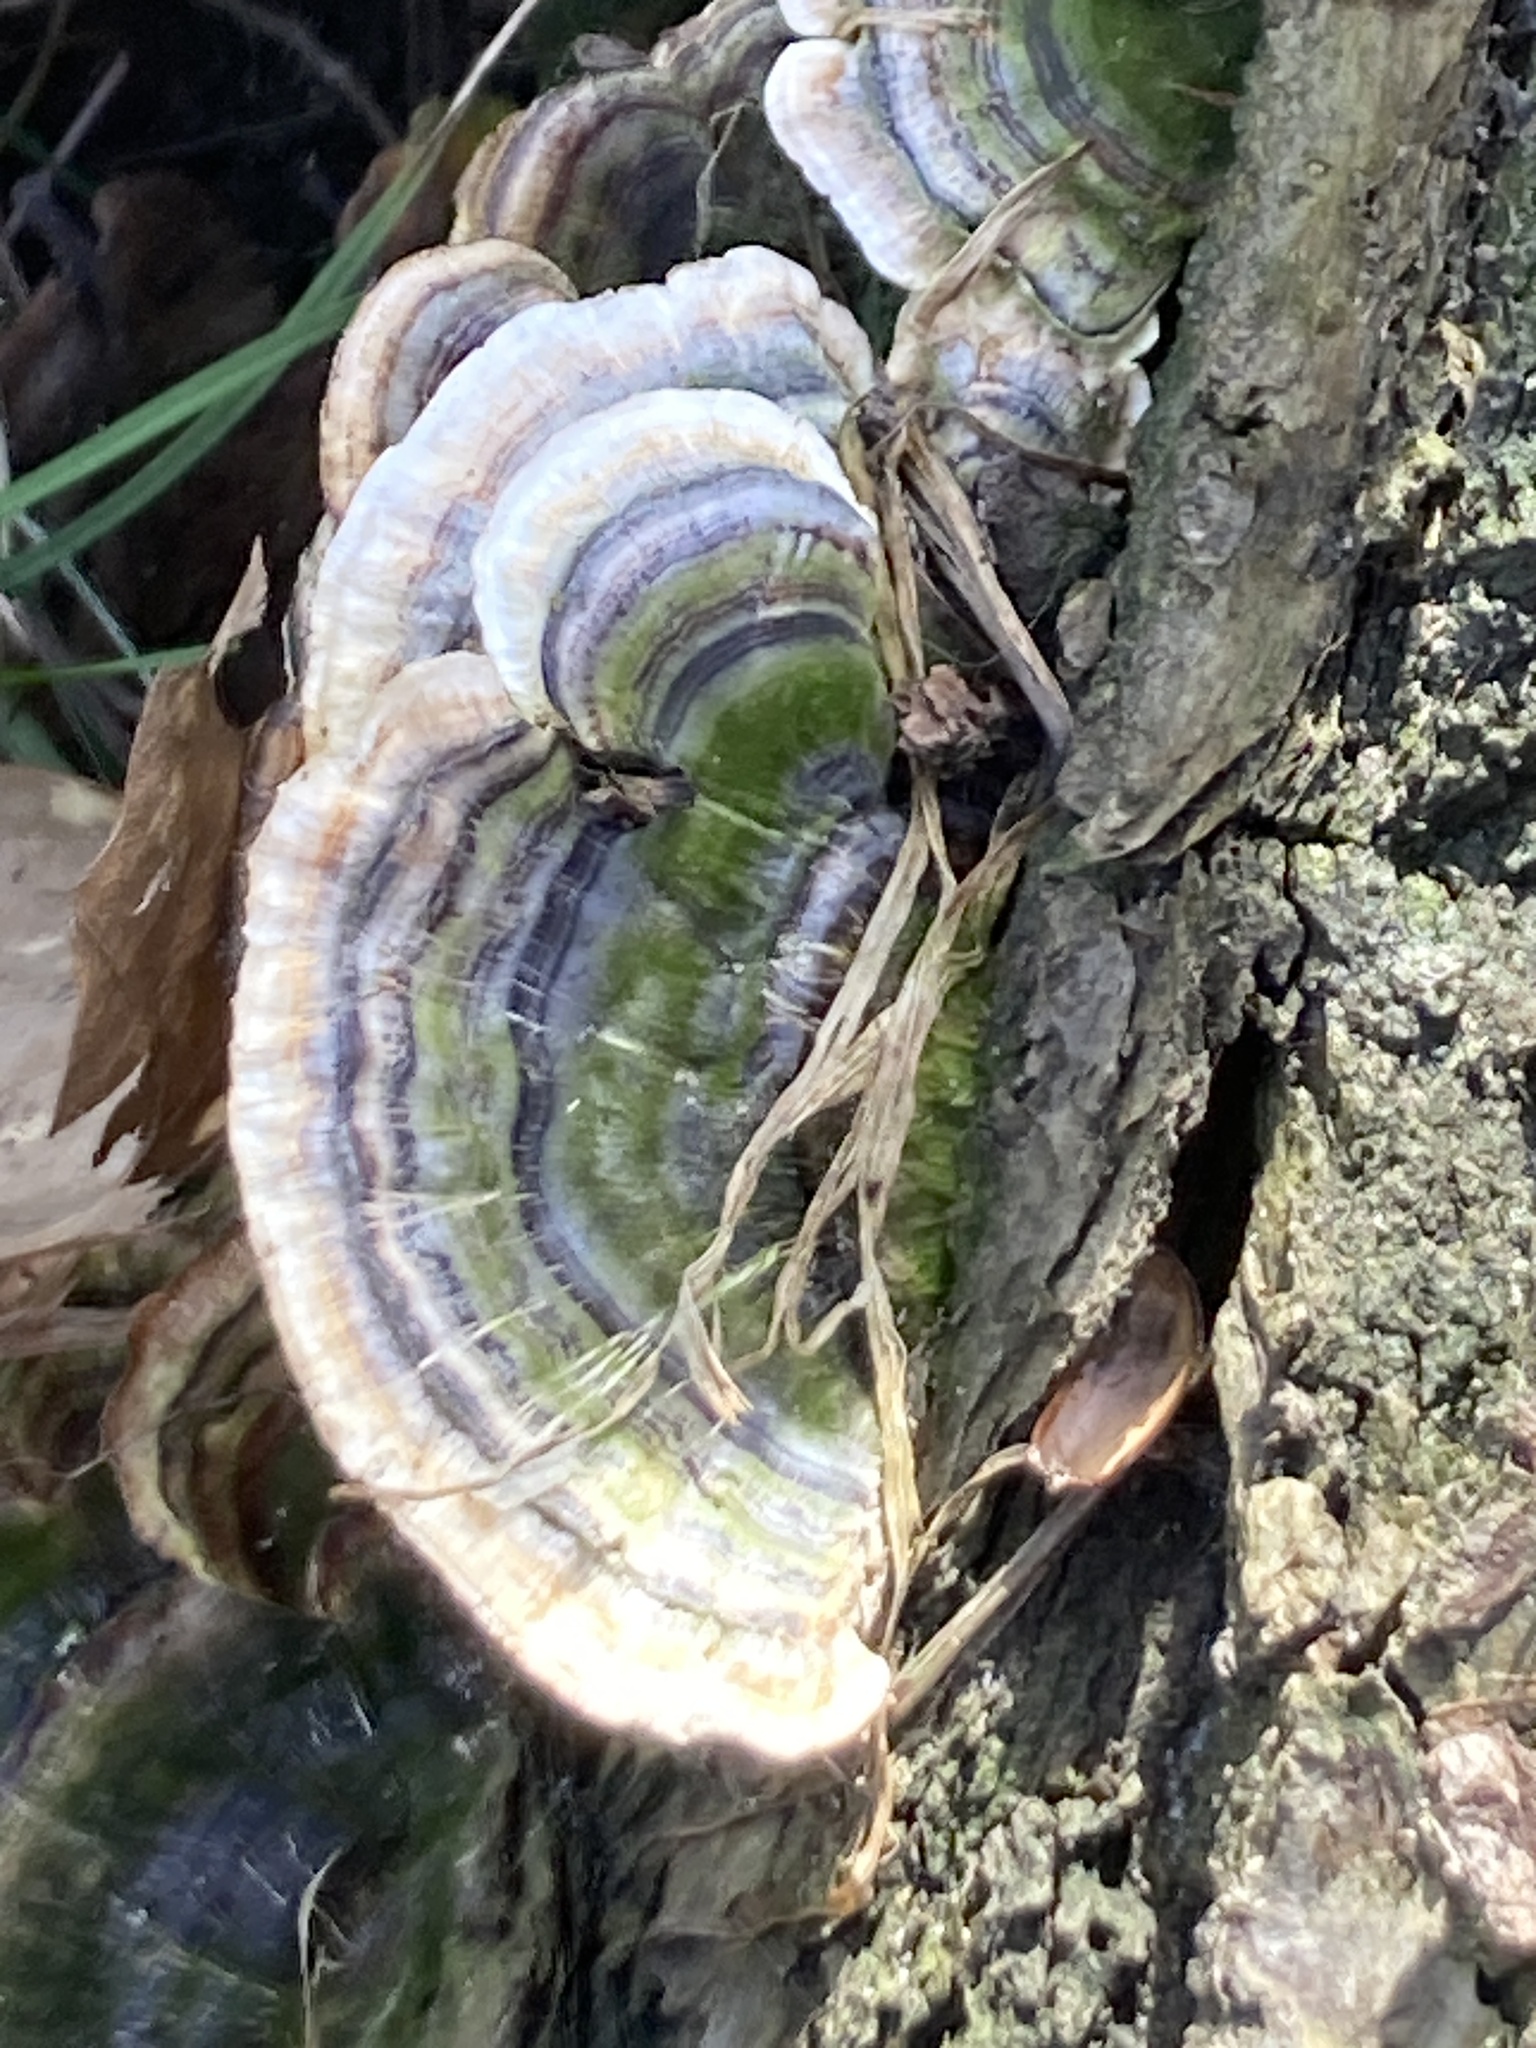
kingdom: Fungi
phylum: Basidiomycota
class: Agaricomycetes
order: Polyporales
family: Polyporaceae
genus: Trametes
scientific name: Trametes versicolor
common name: Turkeytail
